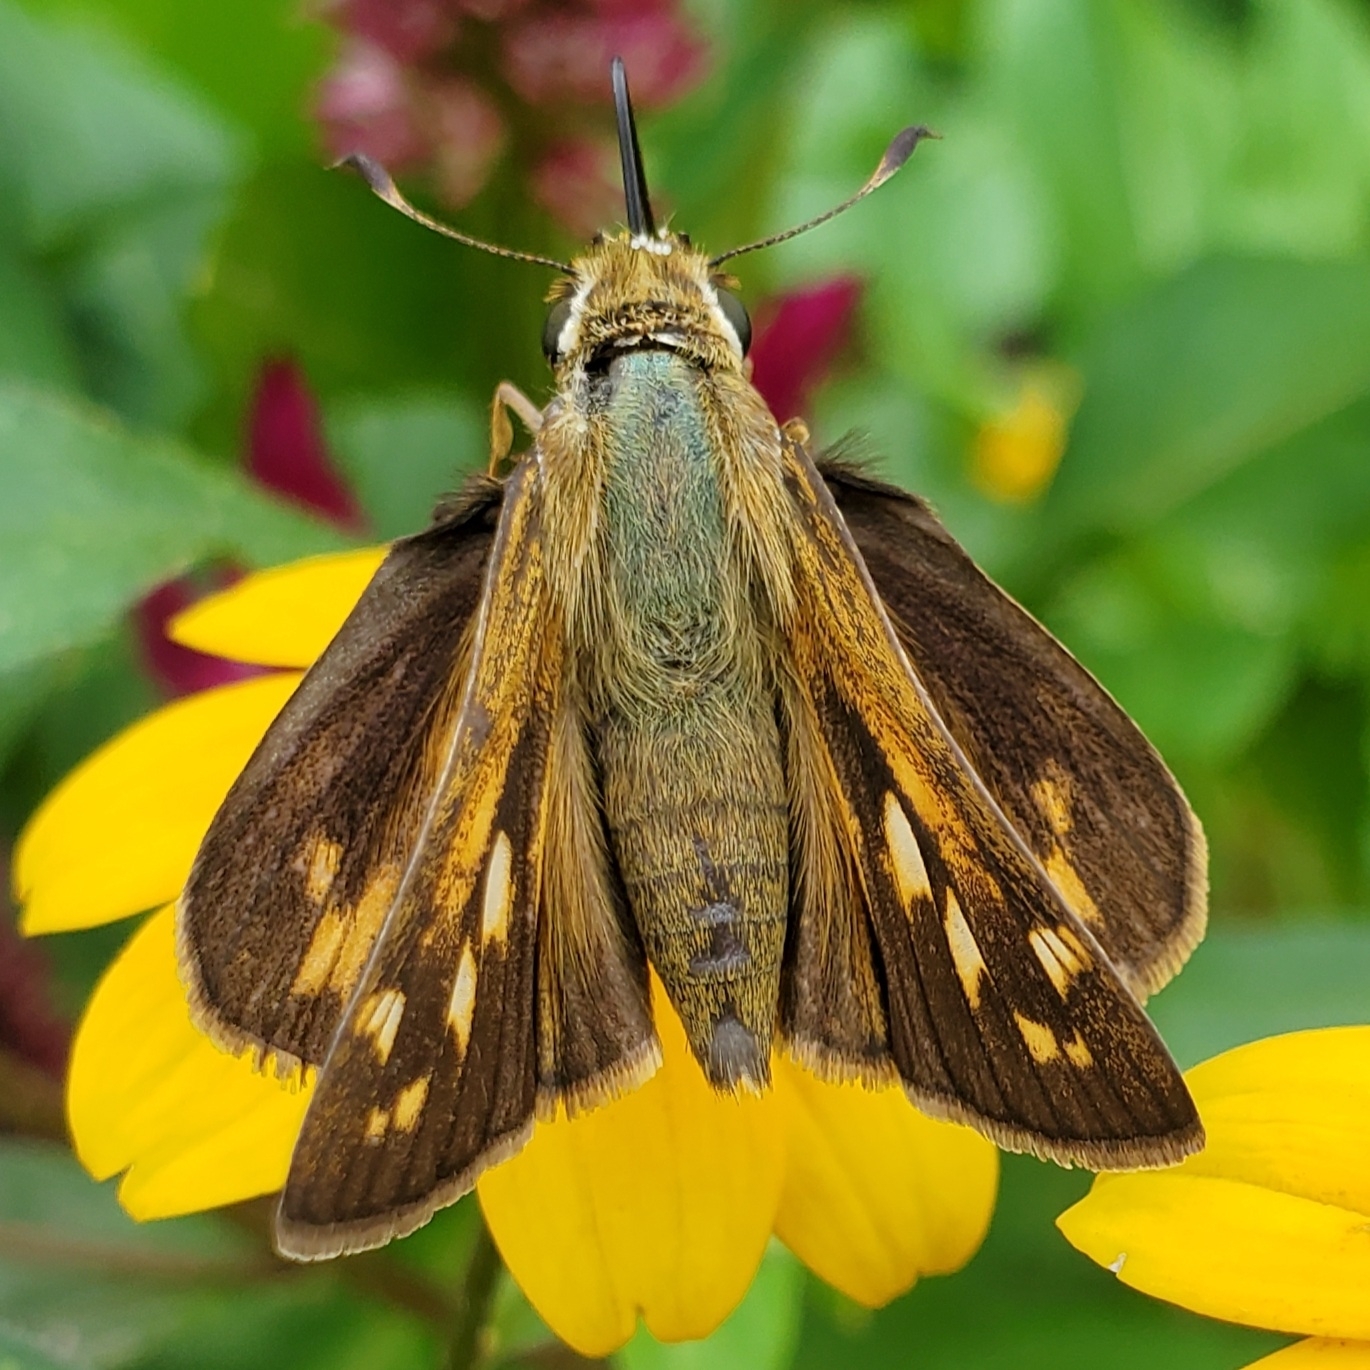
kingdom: Animalia
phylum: Arthropoda
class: Insecta
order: Lepidoptera
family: Hesperiidae
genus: Atalopedes
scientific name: Atalopedes
